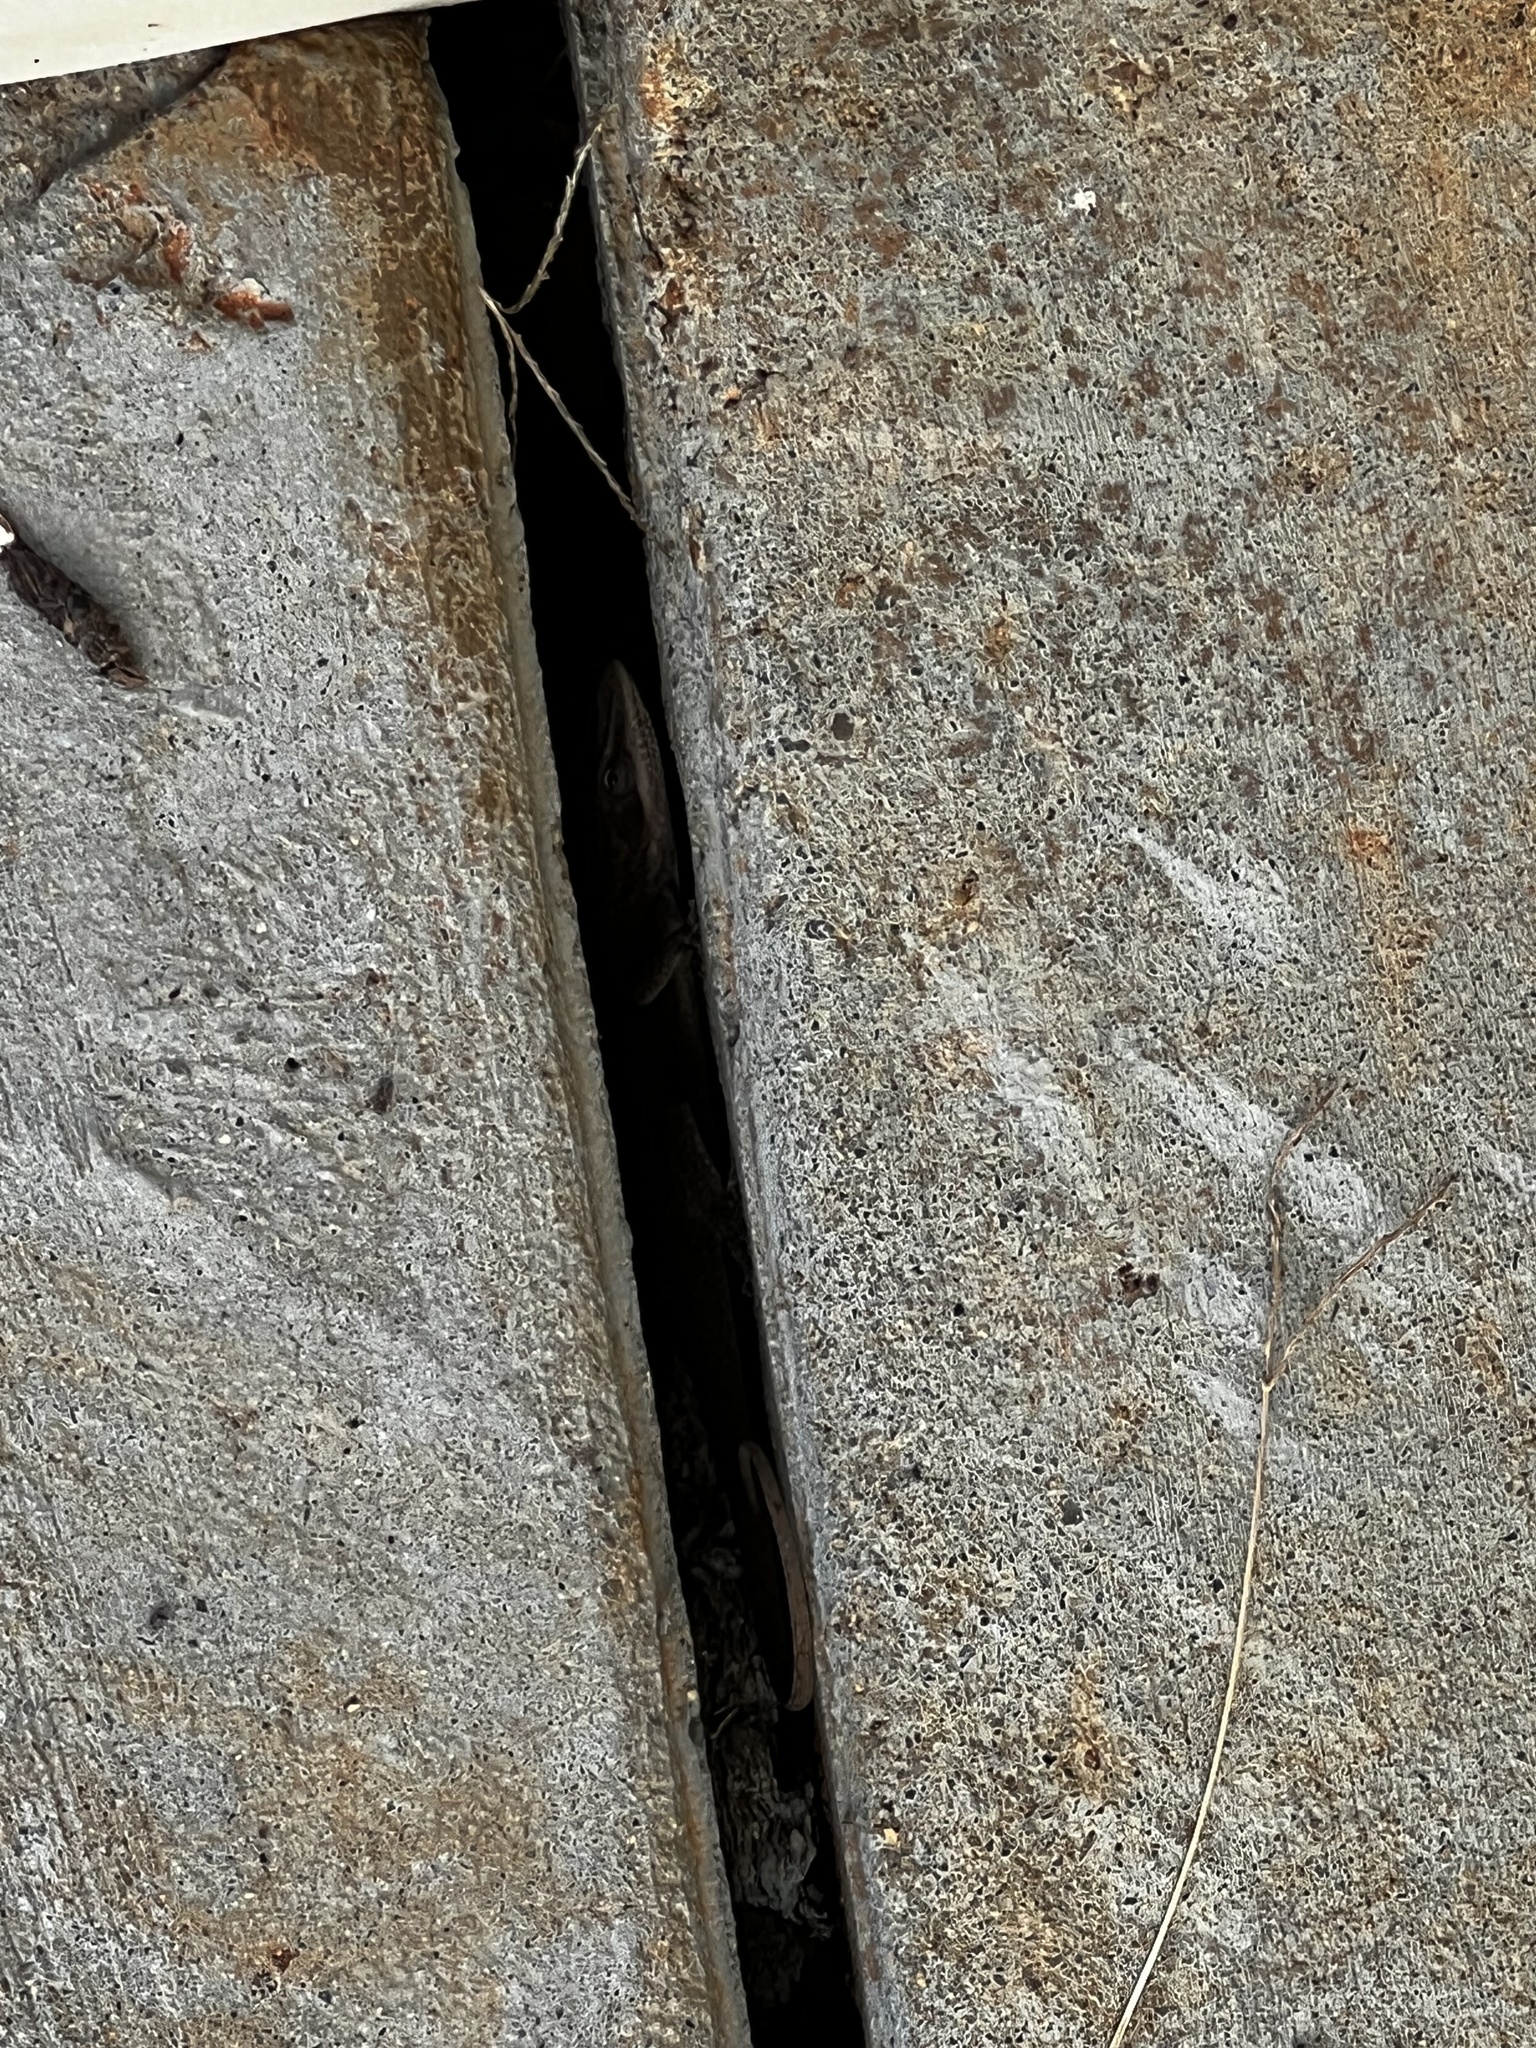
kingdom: Animalia
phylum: Chordata
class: Squamata
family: Dactyloidae
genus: Anolis
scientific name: Anolis carolinensis
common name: Green anole
